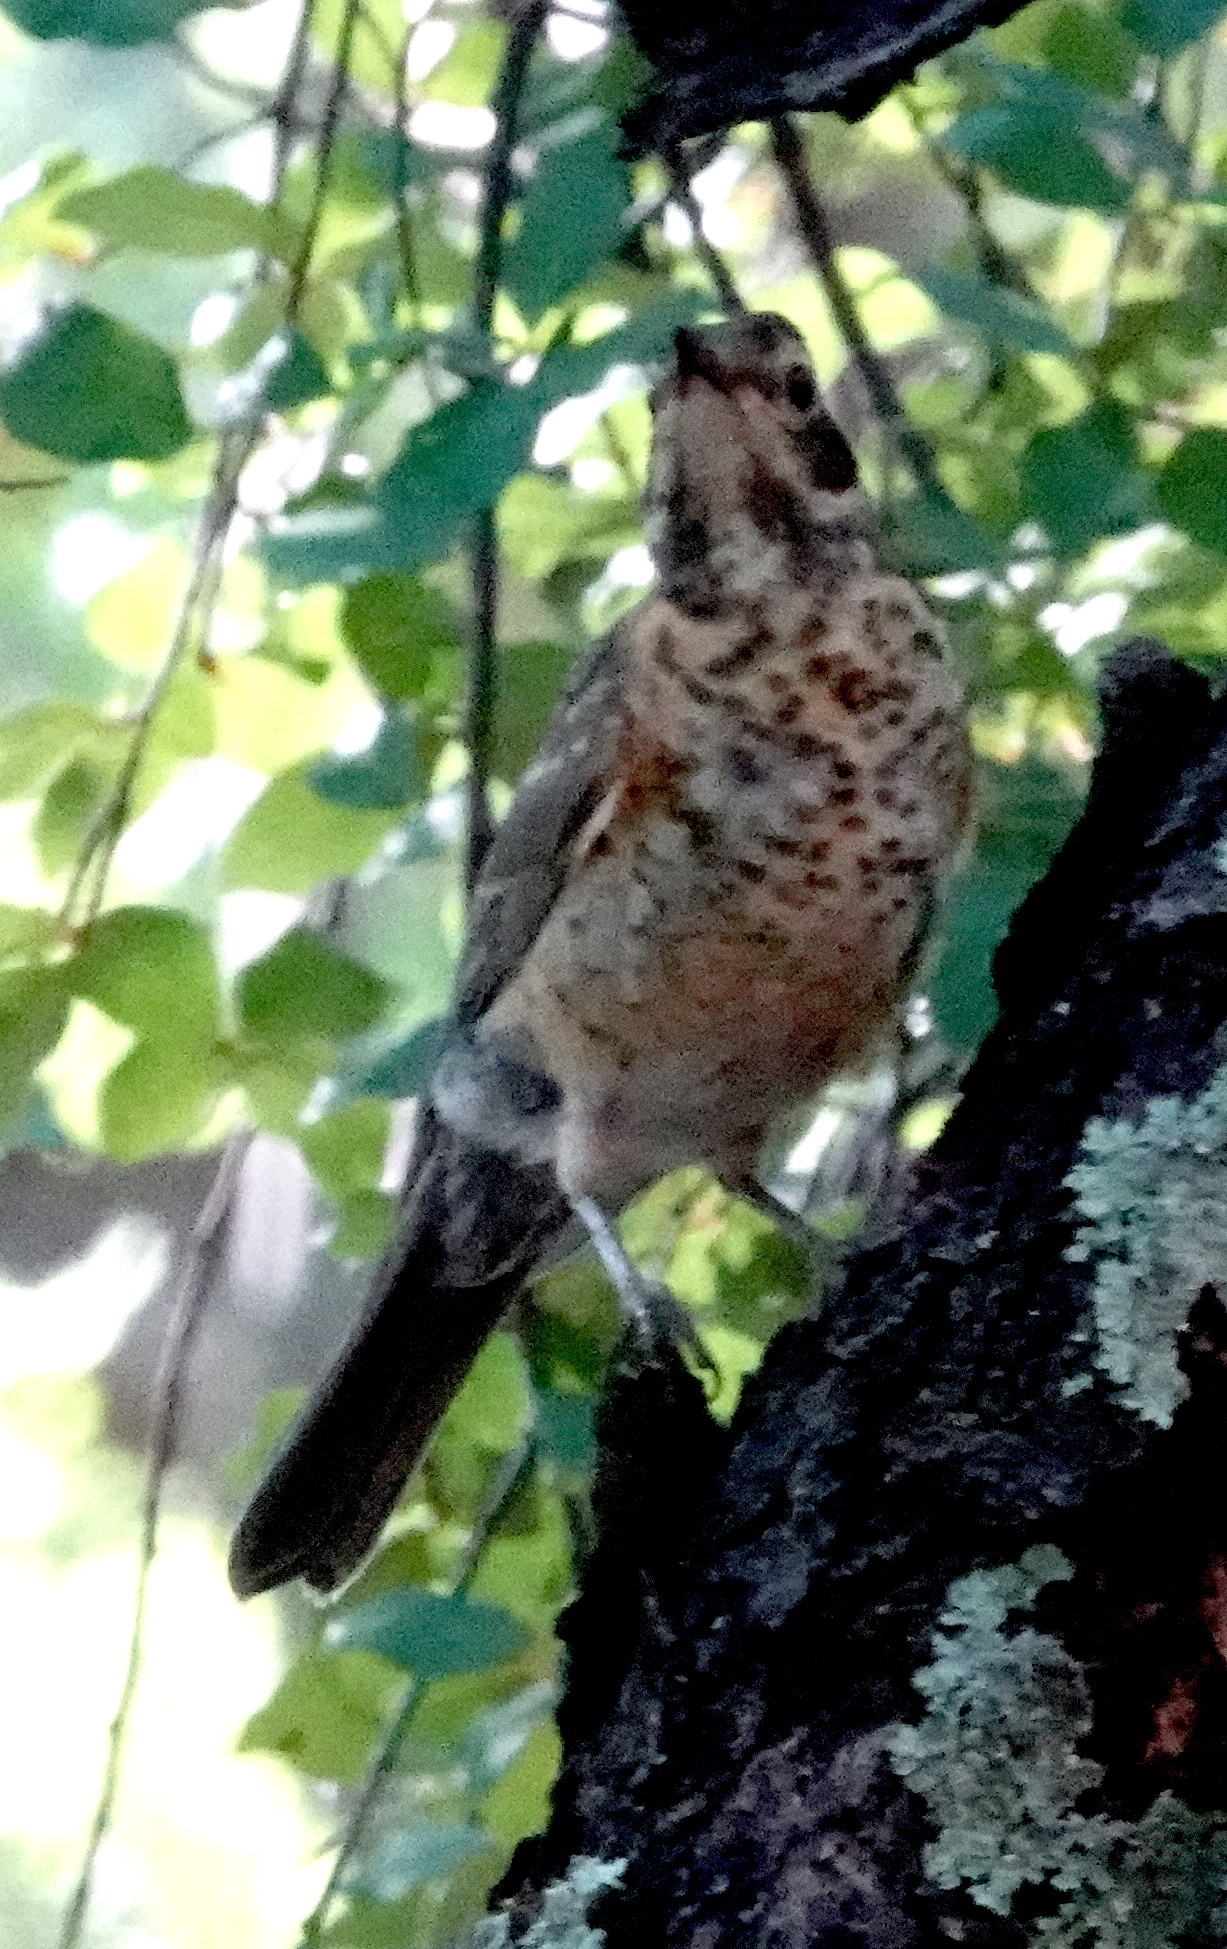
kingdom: Animalia
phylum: Chordata
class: Aves
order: Passeriformes
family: Turdidae
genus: Turdus
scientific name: Turdus migratorius
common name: American robin
